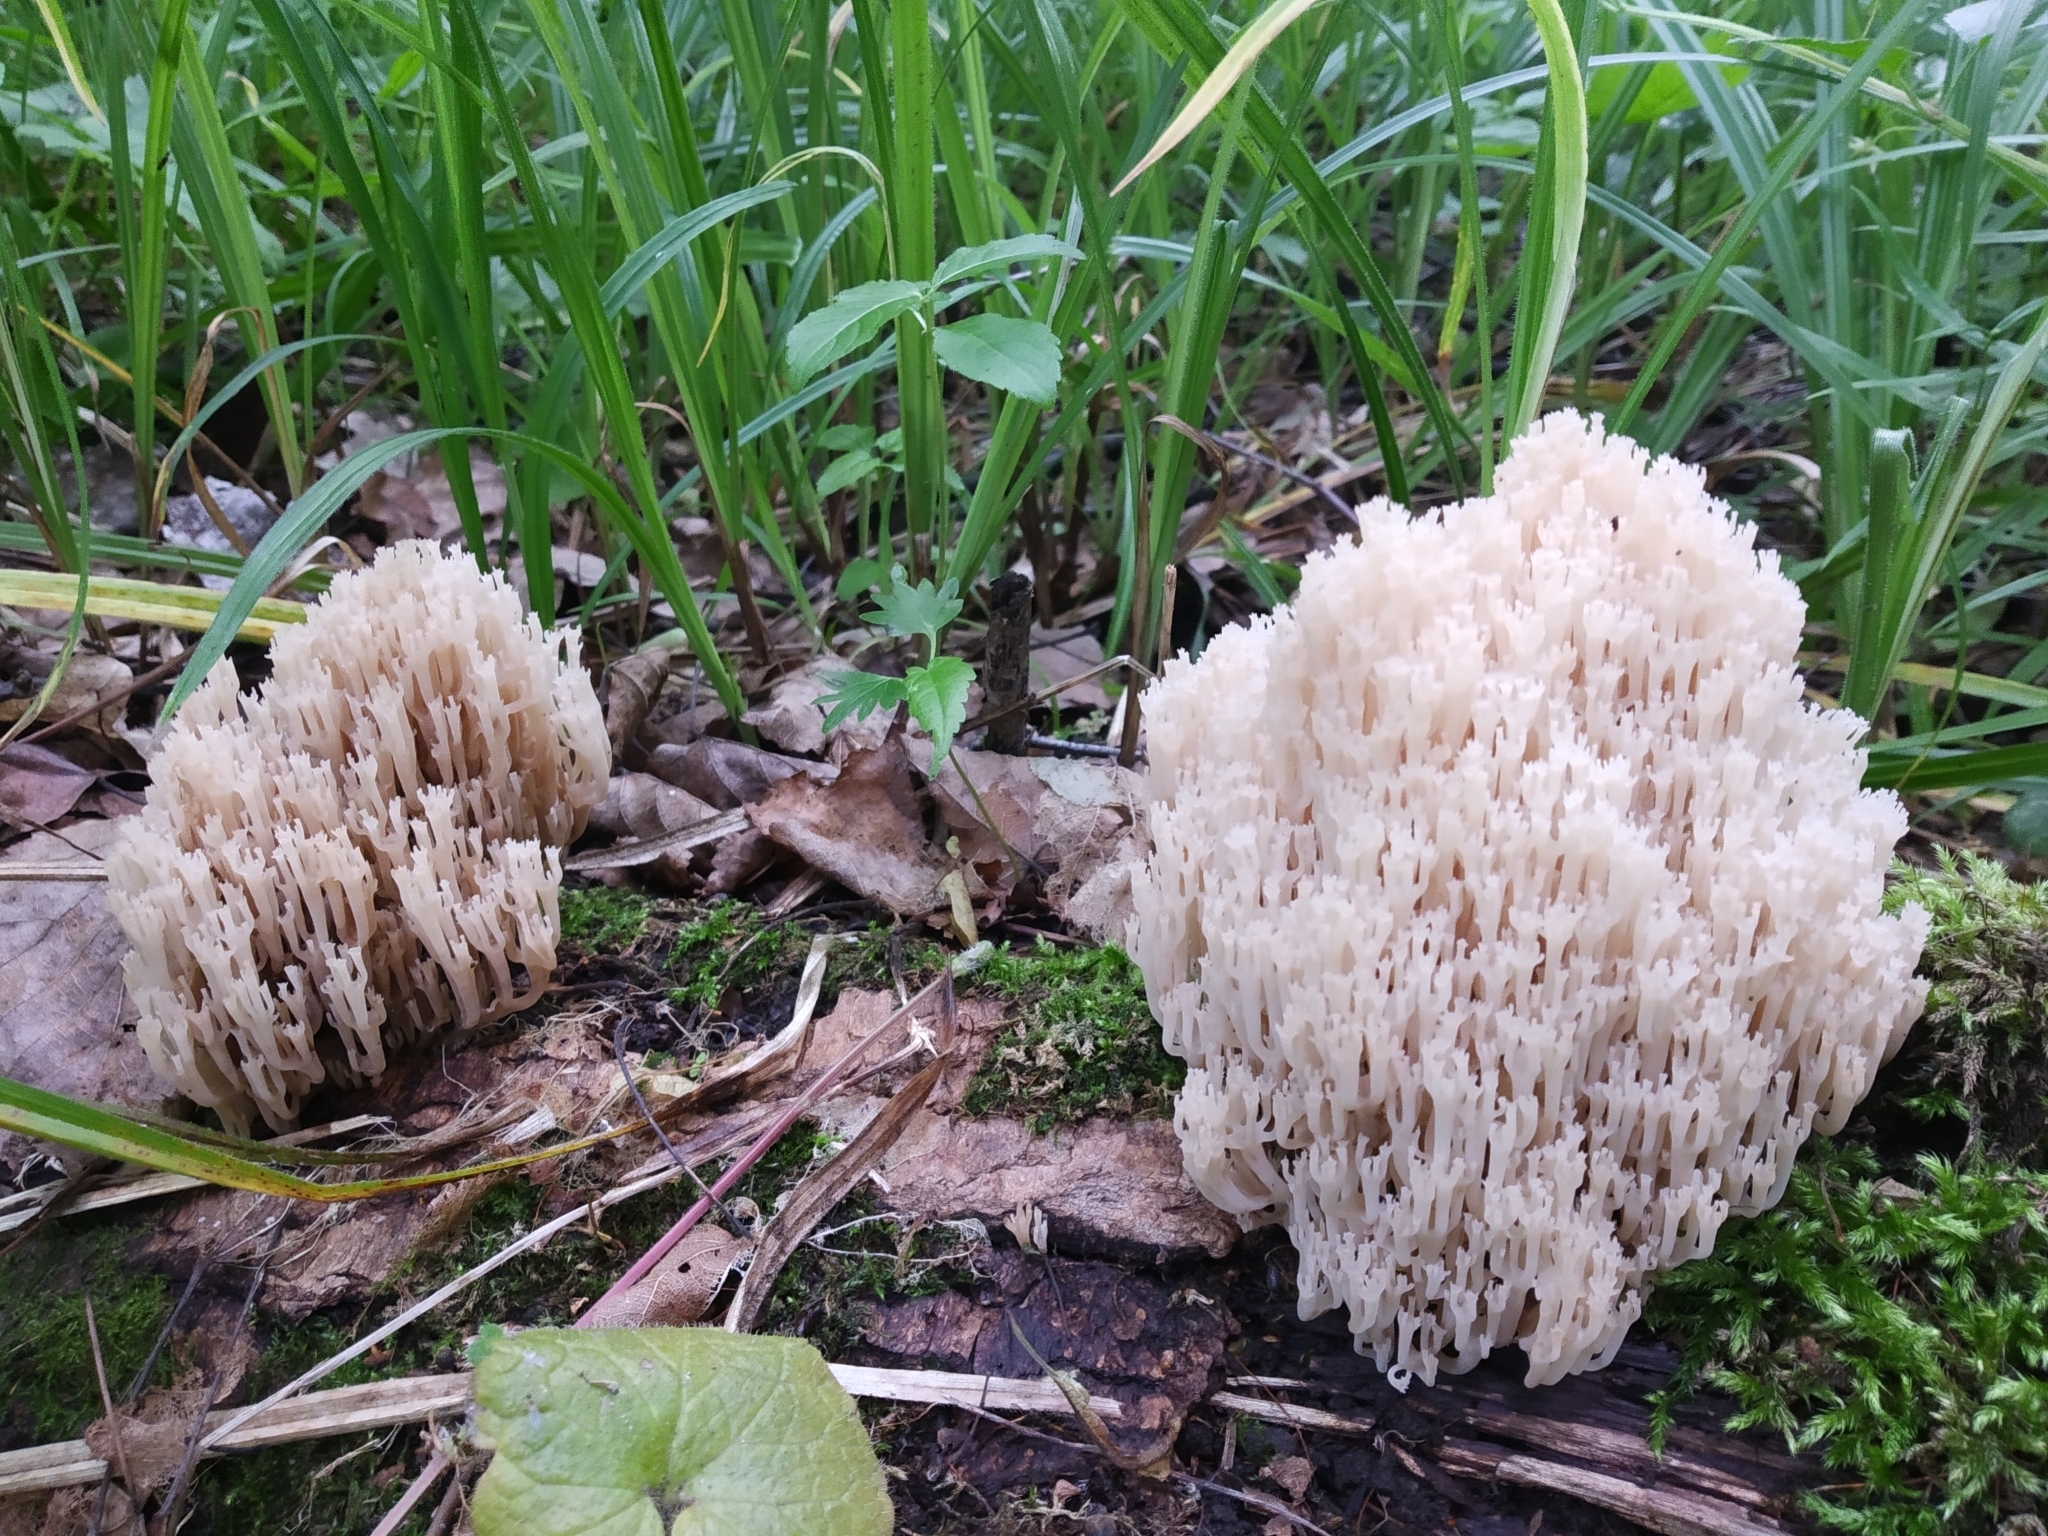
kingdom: Fungi
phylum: Basidiomycota
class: Agaricomycetes
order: Russulales
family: Auriscalpiaceae
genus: Artomyces
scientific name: Artomyces pyxidatus
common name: Crown-tipped coral fungus
